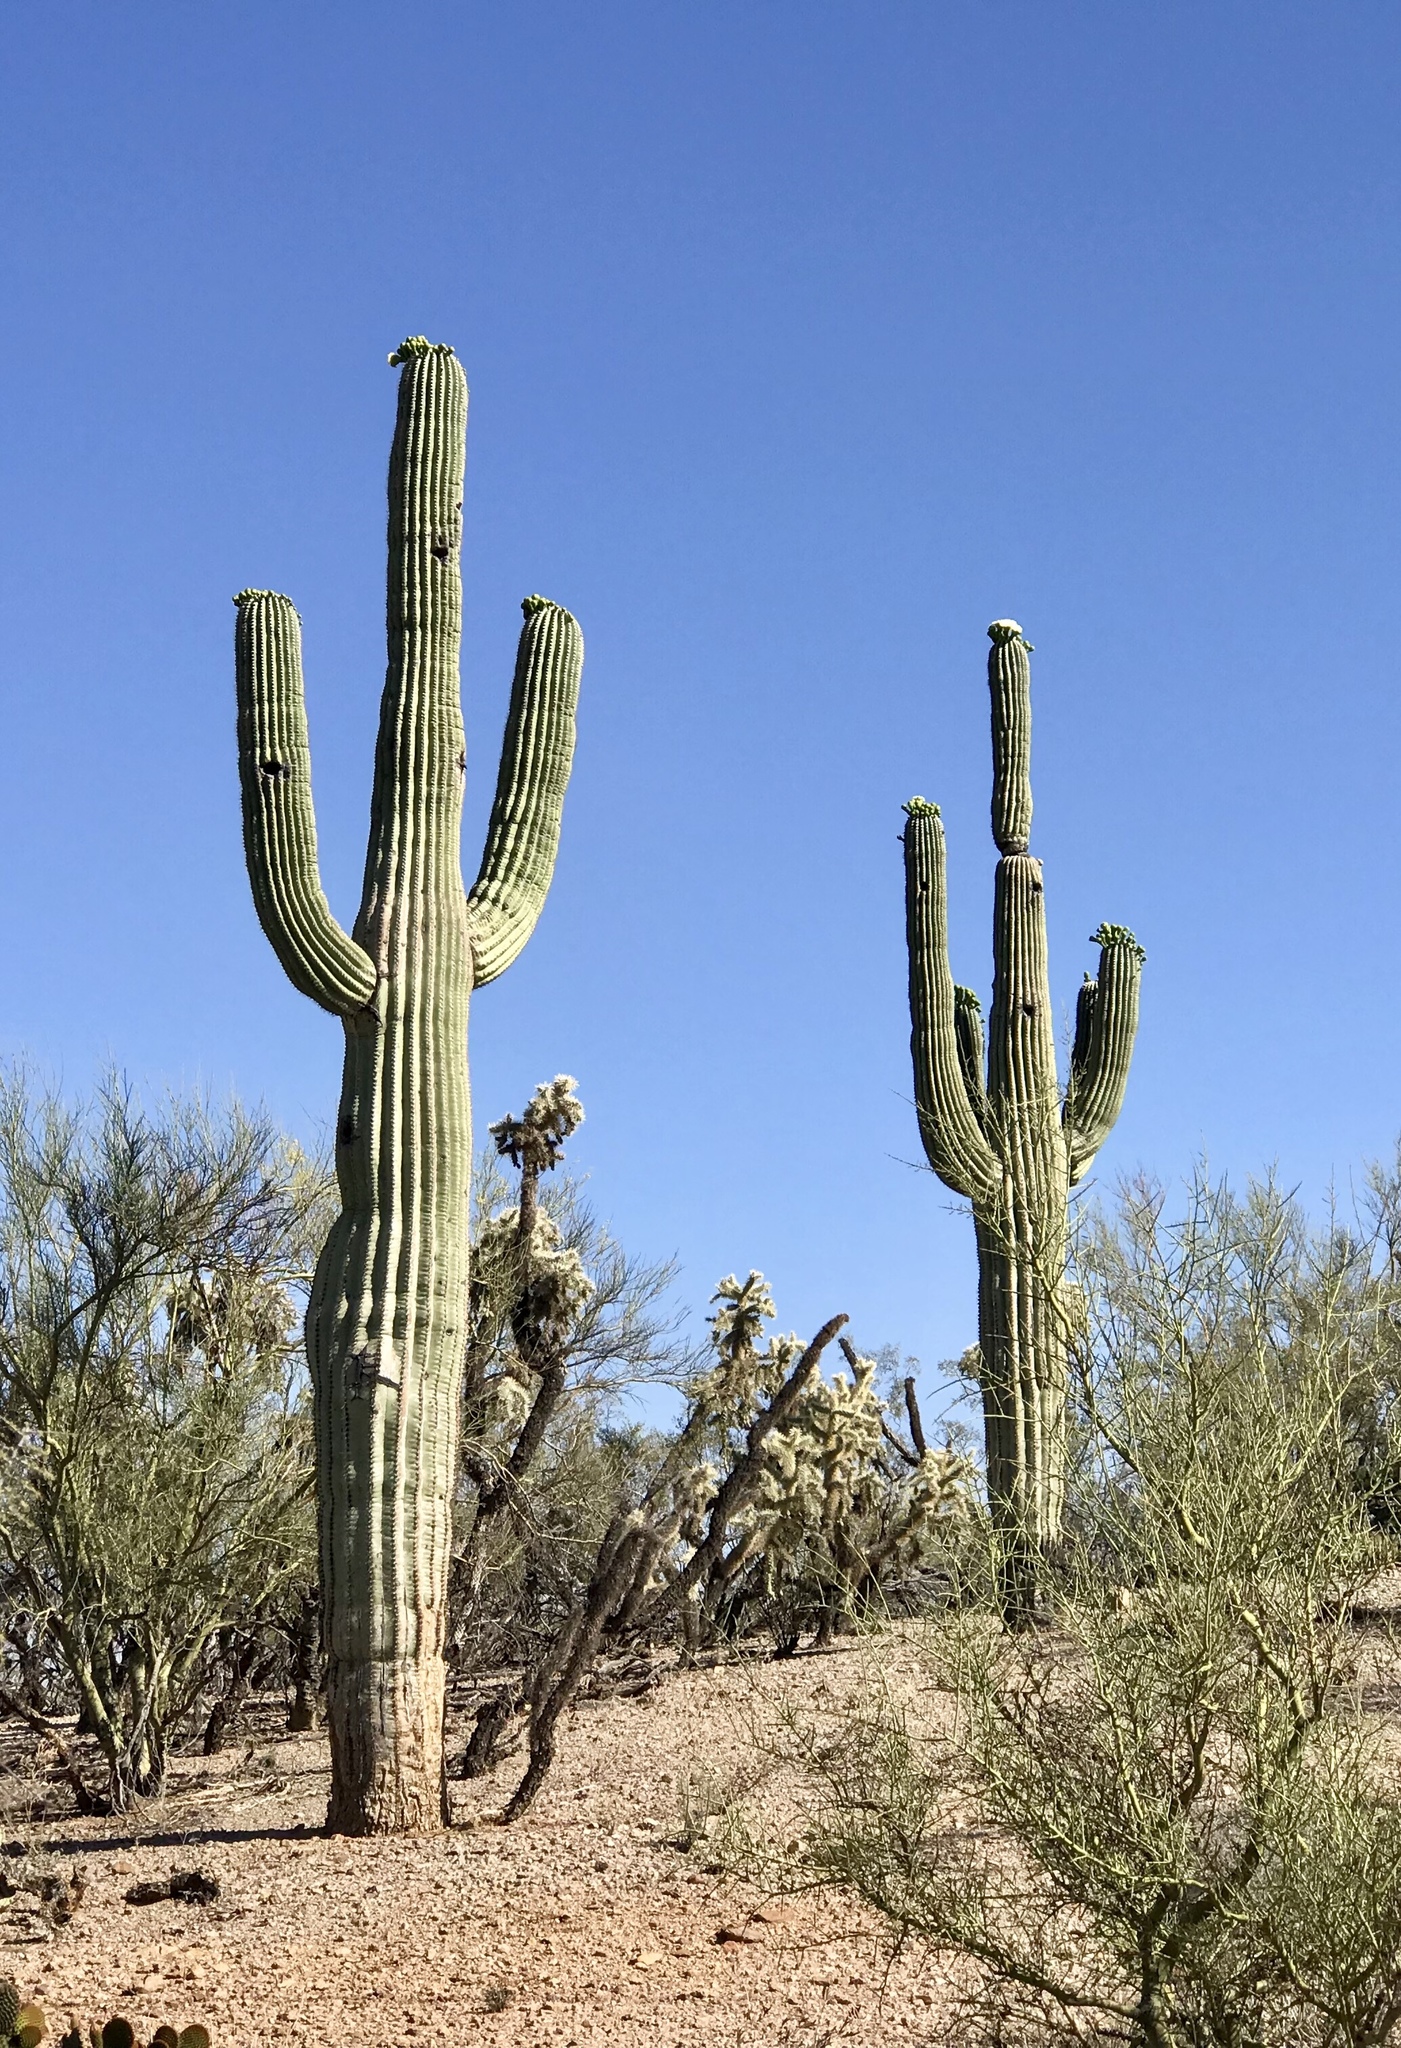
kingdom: Plantae
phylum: Tracheophyta
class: Magnoliopsida
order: Caryophyllales
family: Cactaceae
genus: Carnegiea
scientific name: Carnegiea gigantea
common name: Saguaro
